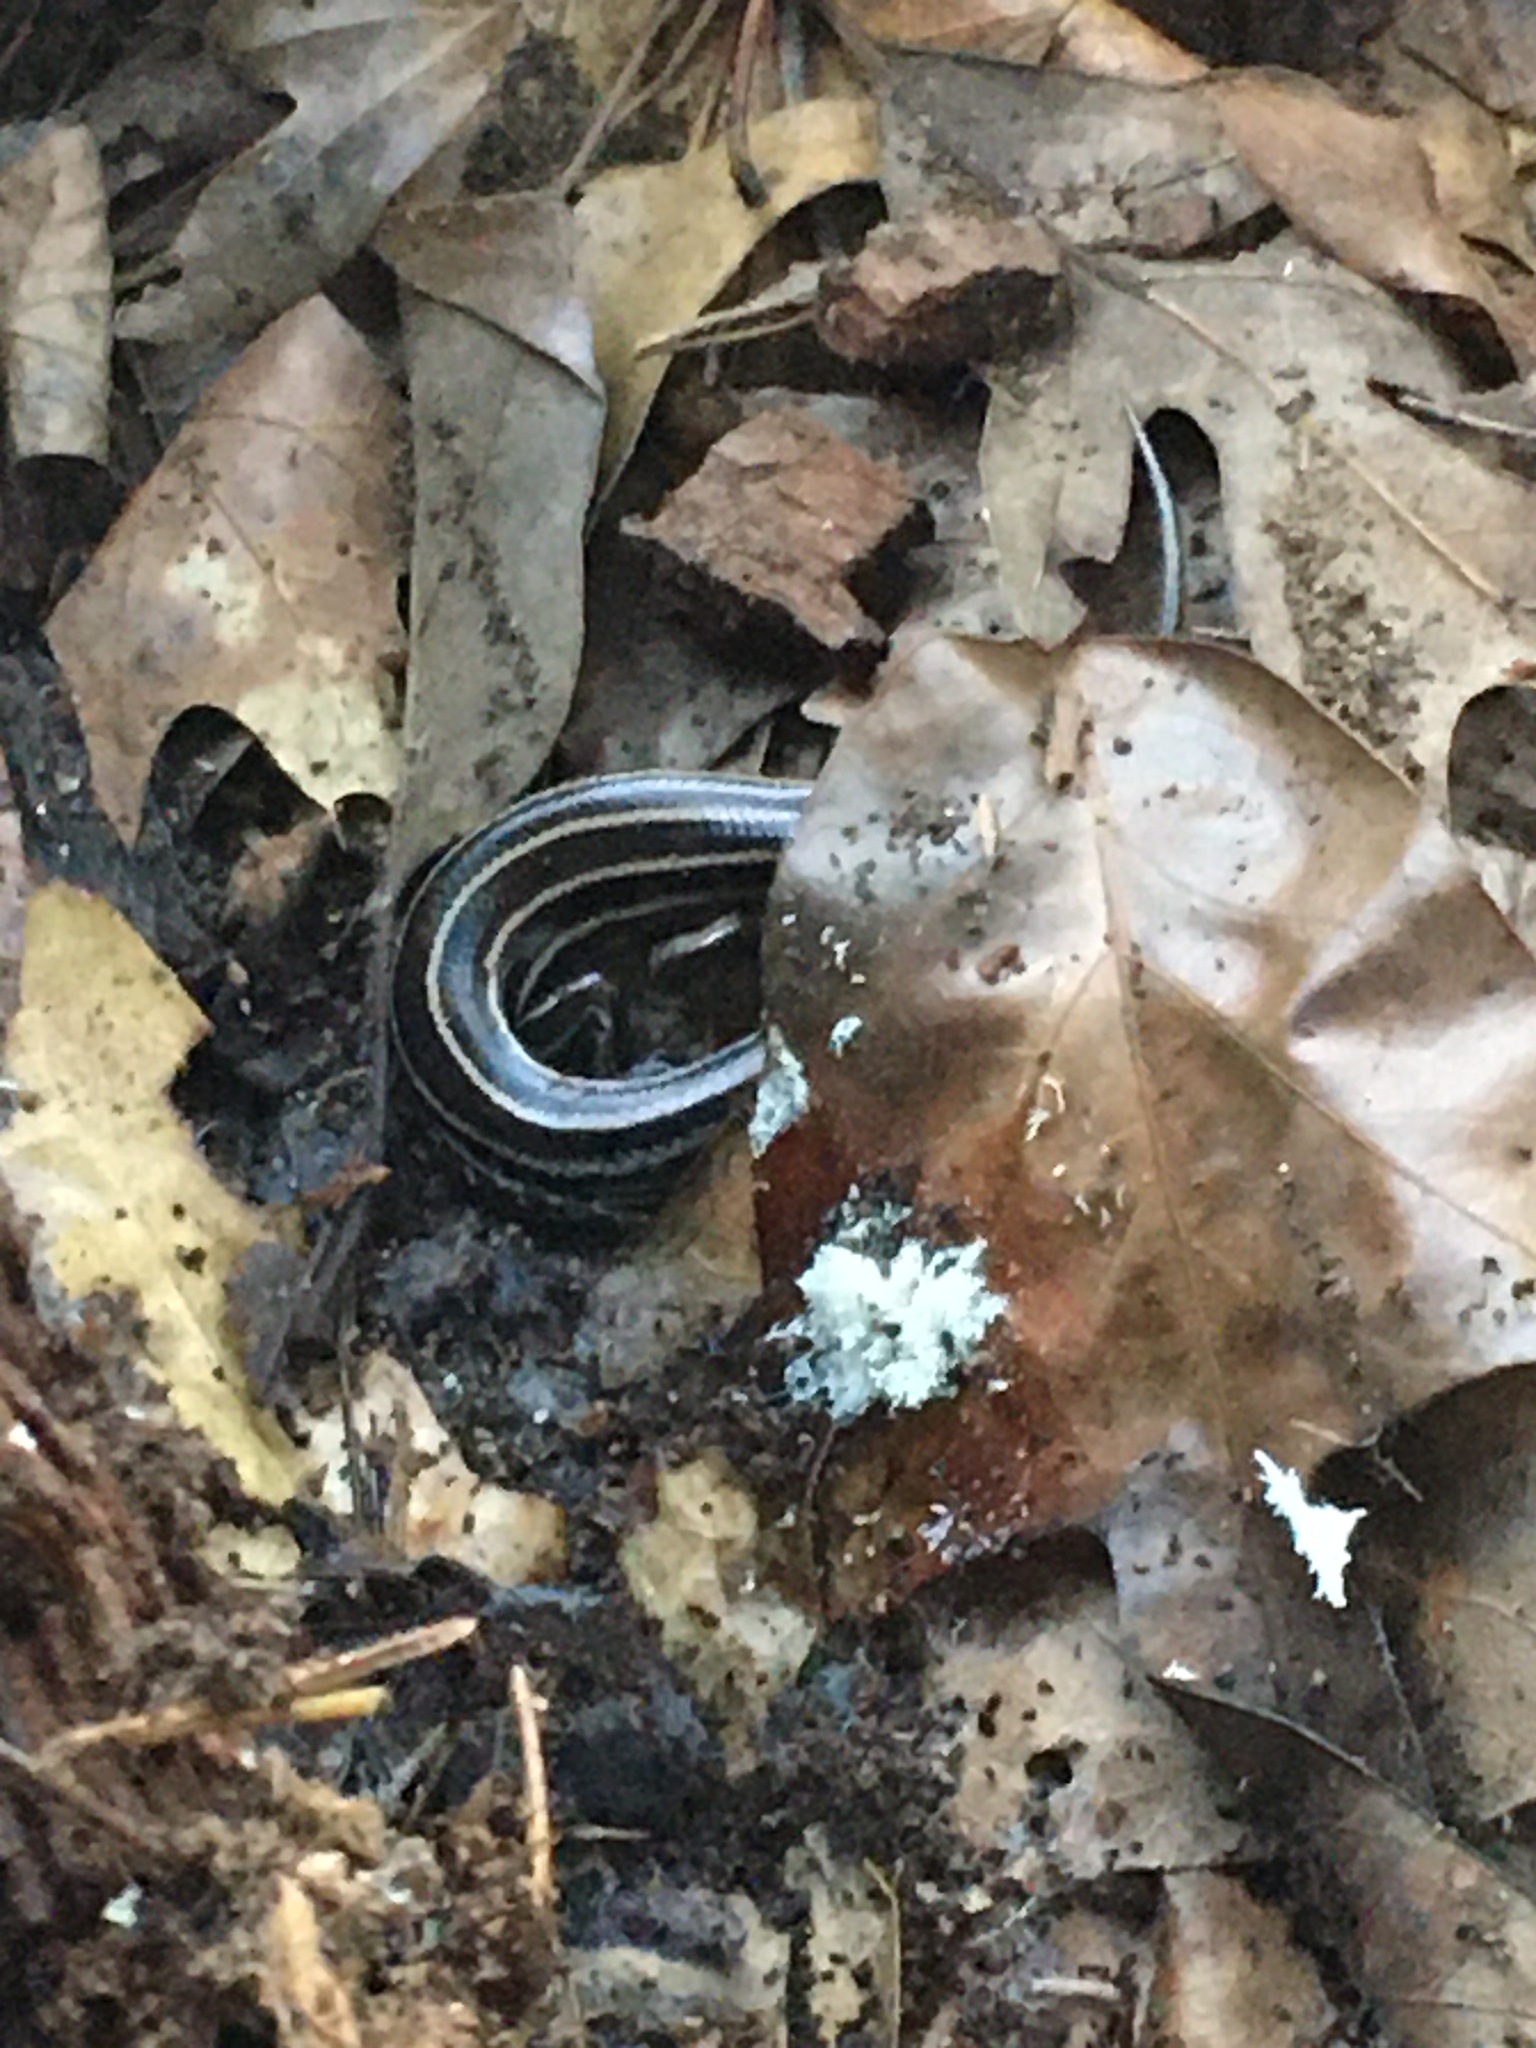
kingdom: Animalia
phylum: Chordata
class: Squamata
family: Scincidae
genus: Plestiodon
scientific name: Plestiodon fasciatus
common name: Five-lined skink
